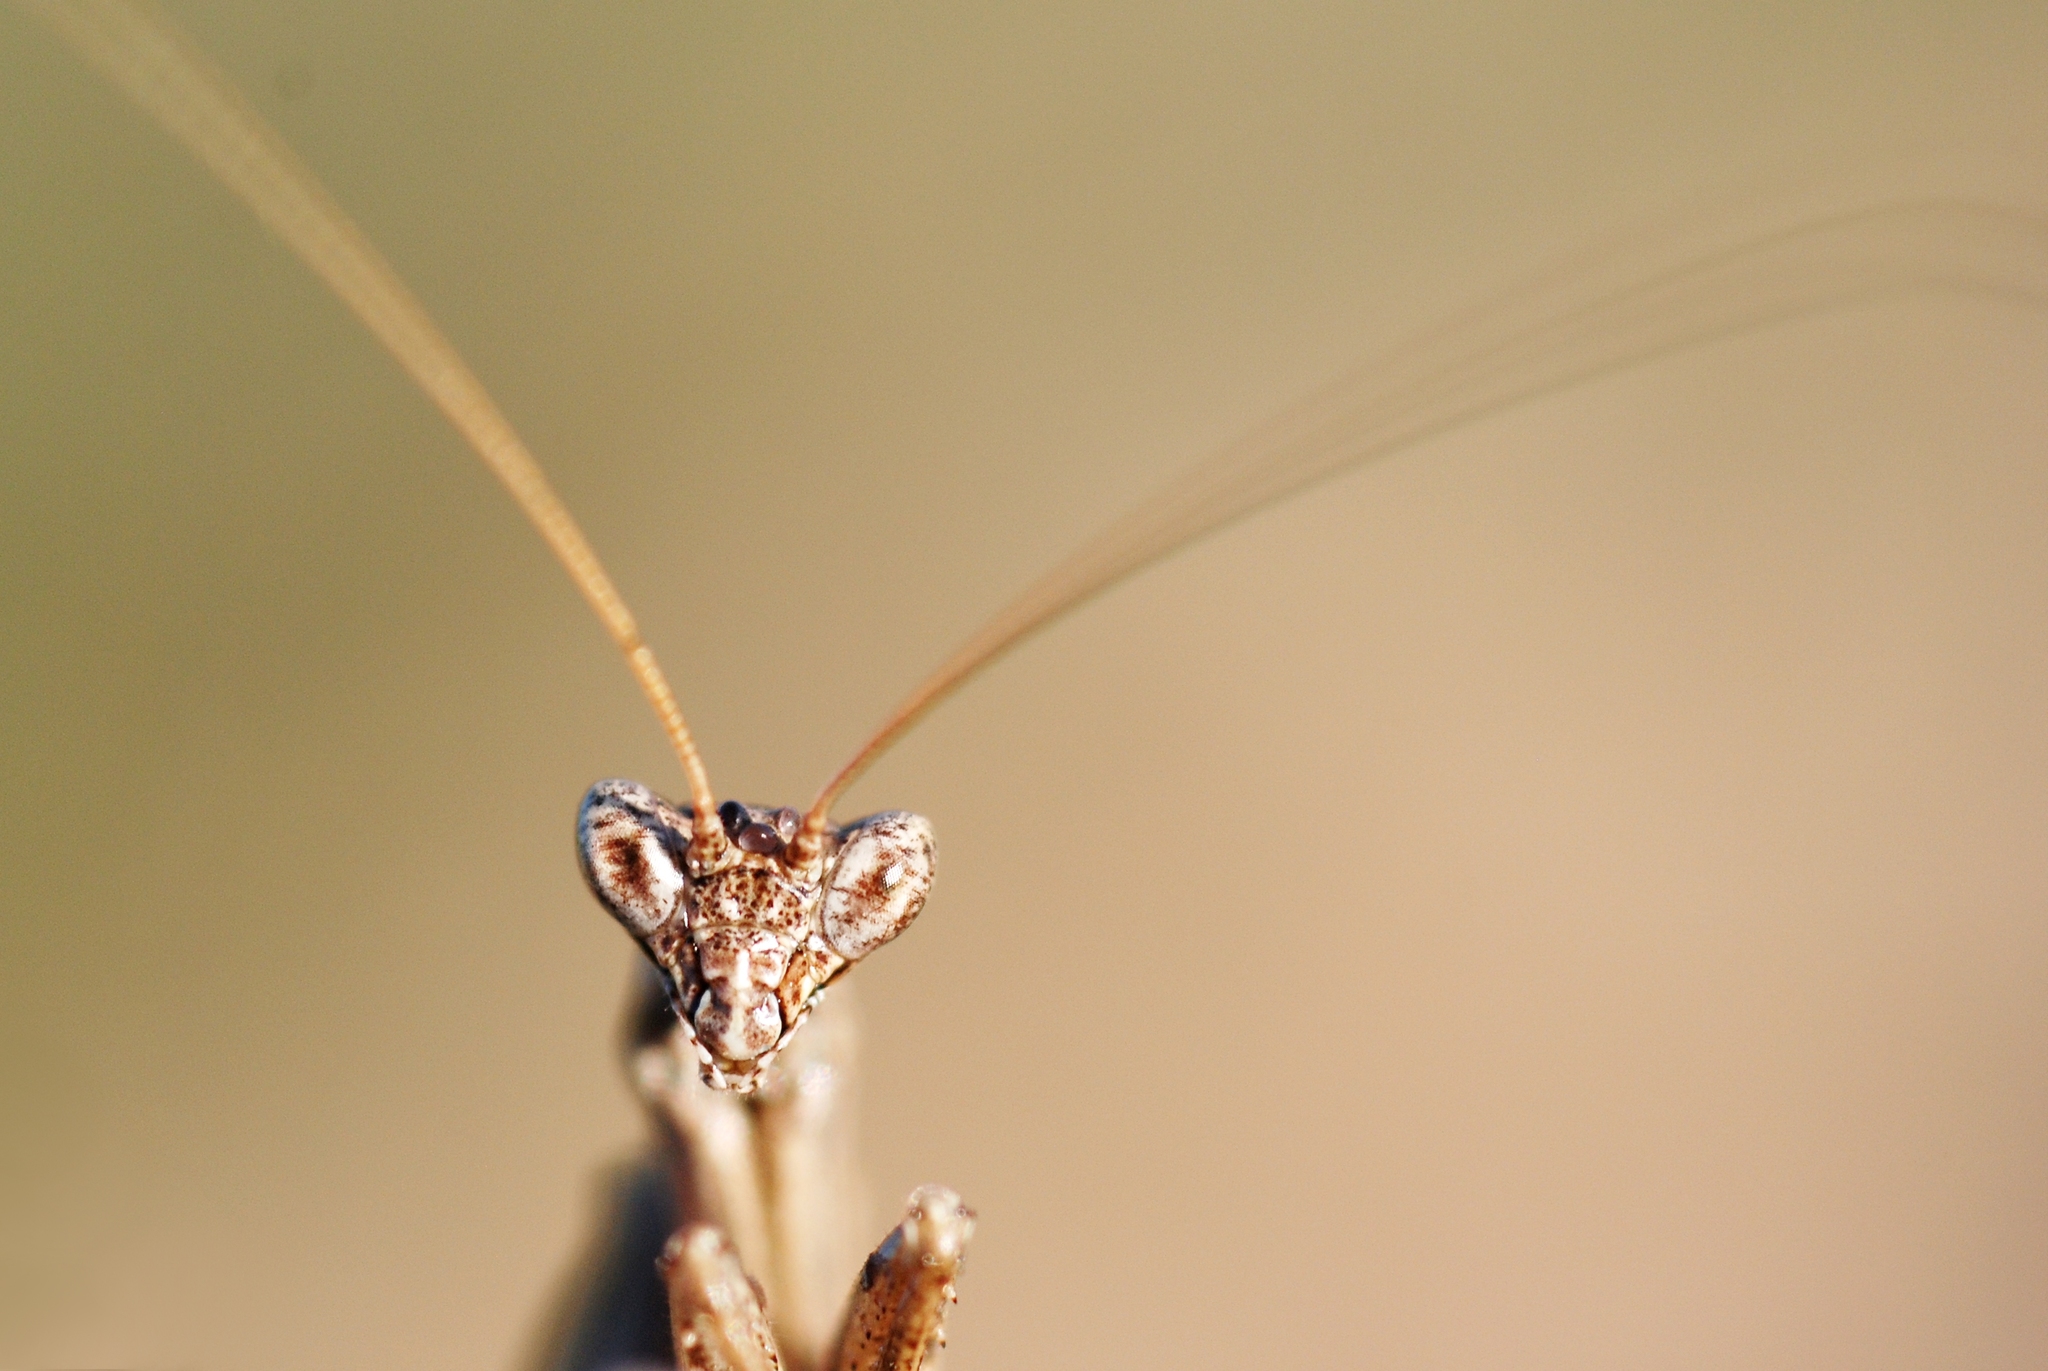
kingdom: Animalia
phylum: Arthropoda
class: Insecta
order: Mantodea
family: Amelidae
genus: Ameles
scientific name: Ameles decolor
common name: Dwarf mantis
